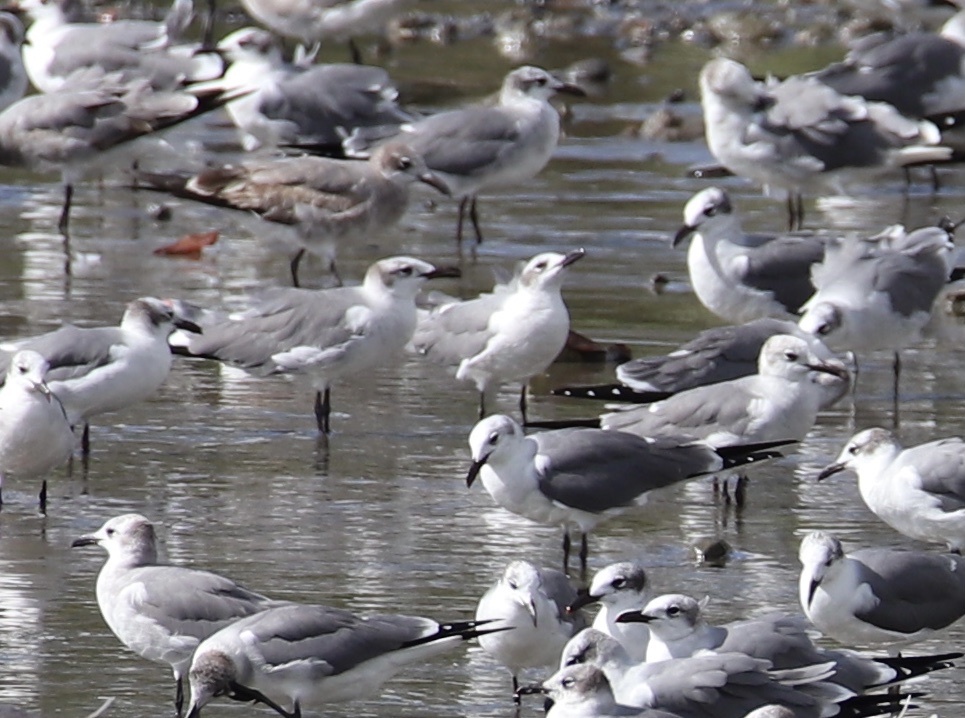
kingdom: Animalia
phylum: Chordata
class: Aves
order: Charadriiformes
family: Laridae
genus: Leucophaeus
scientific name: Leucophaeus atricilla
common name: Laughing gull
